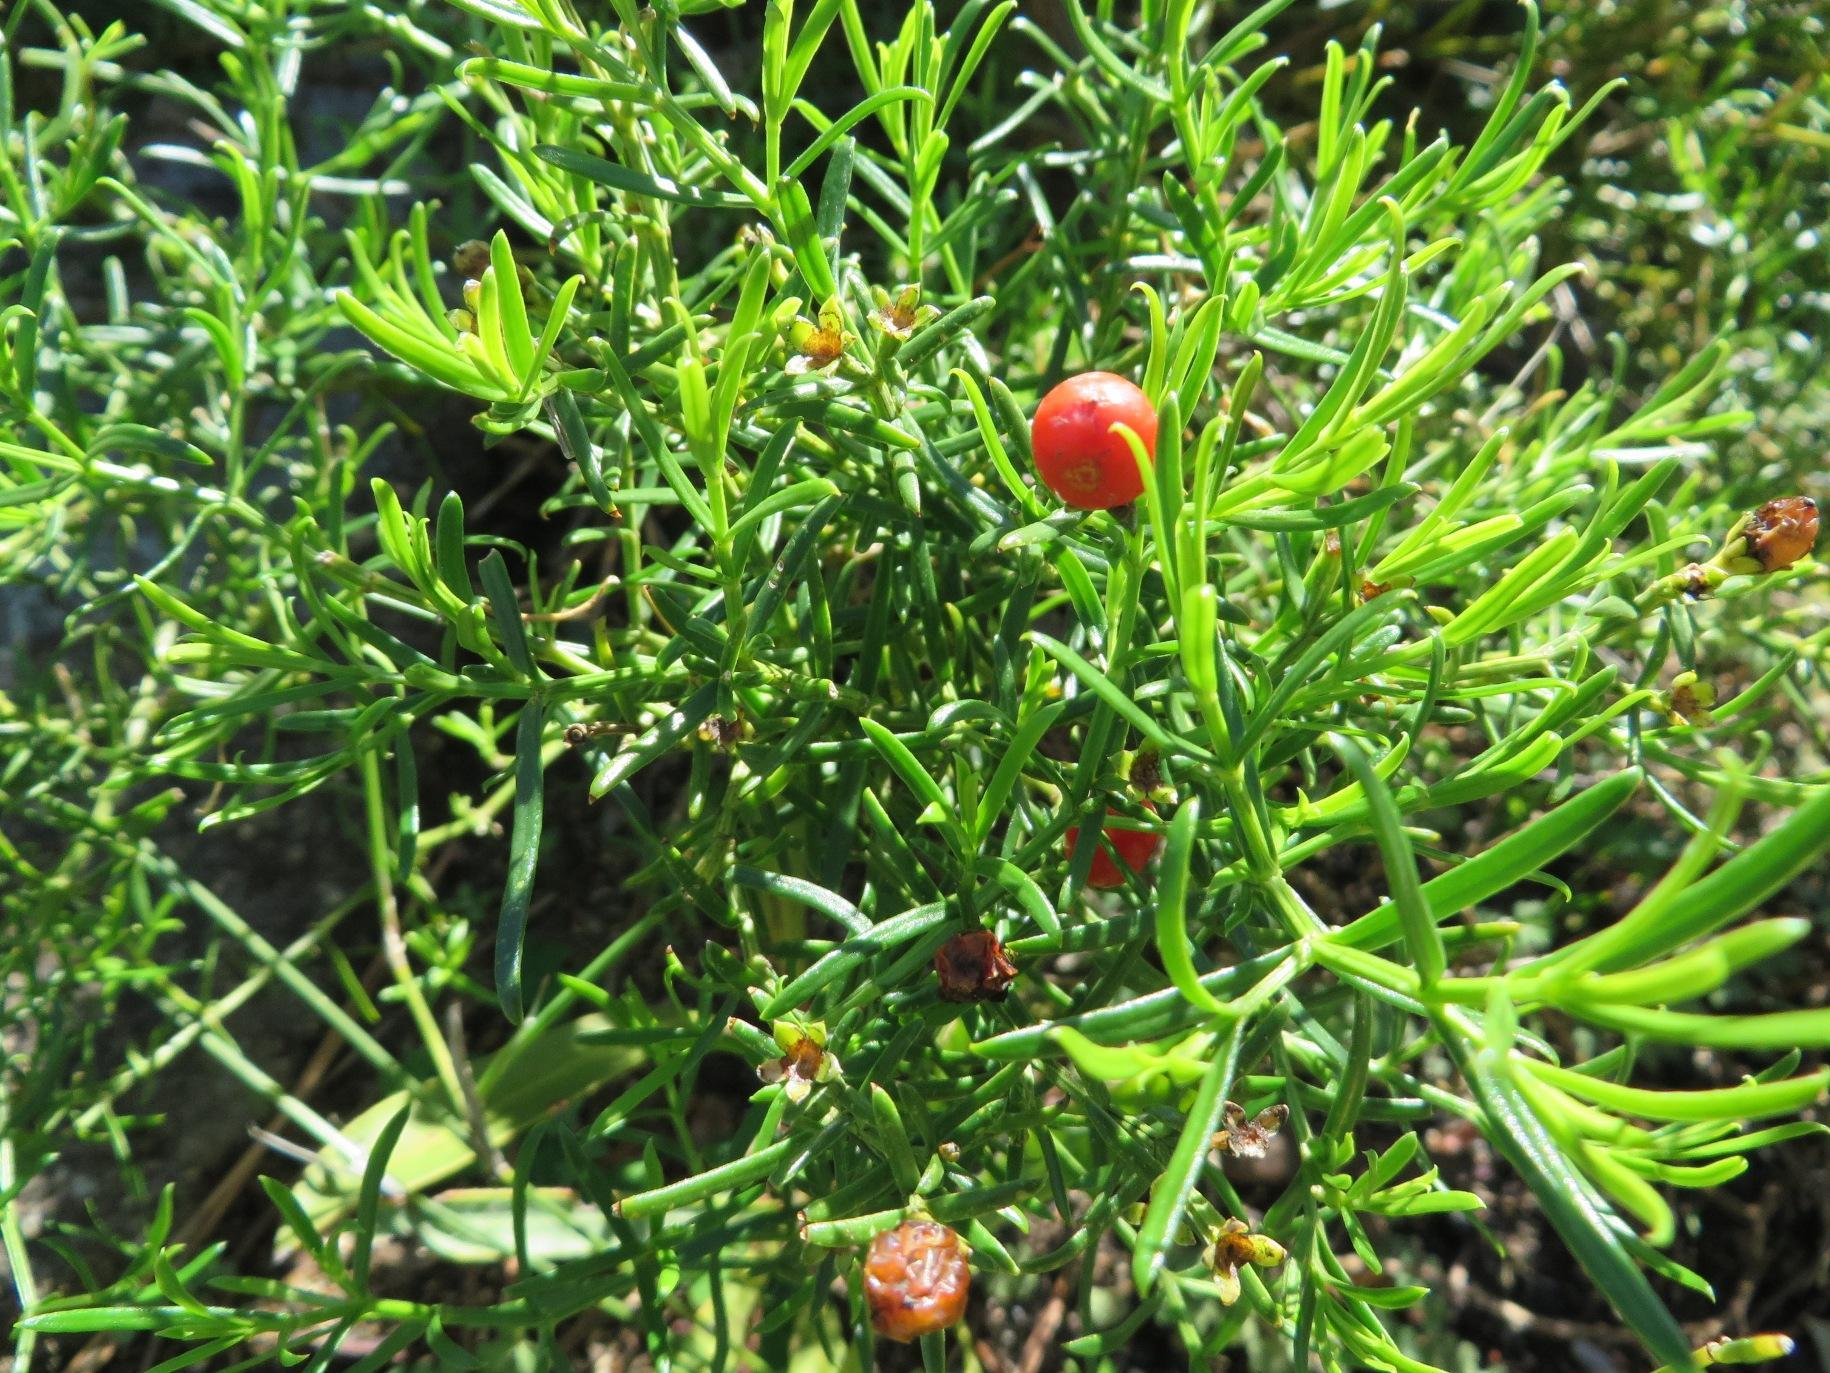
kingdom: Plantae
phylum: Tracheophyta
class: Magnoliopsida
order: Gentianales
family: Gentianaceae
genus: Chironia
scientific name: Chironia baccifera
